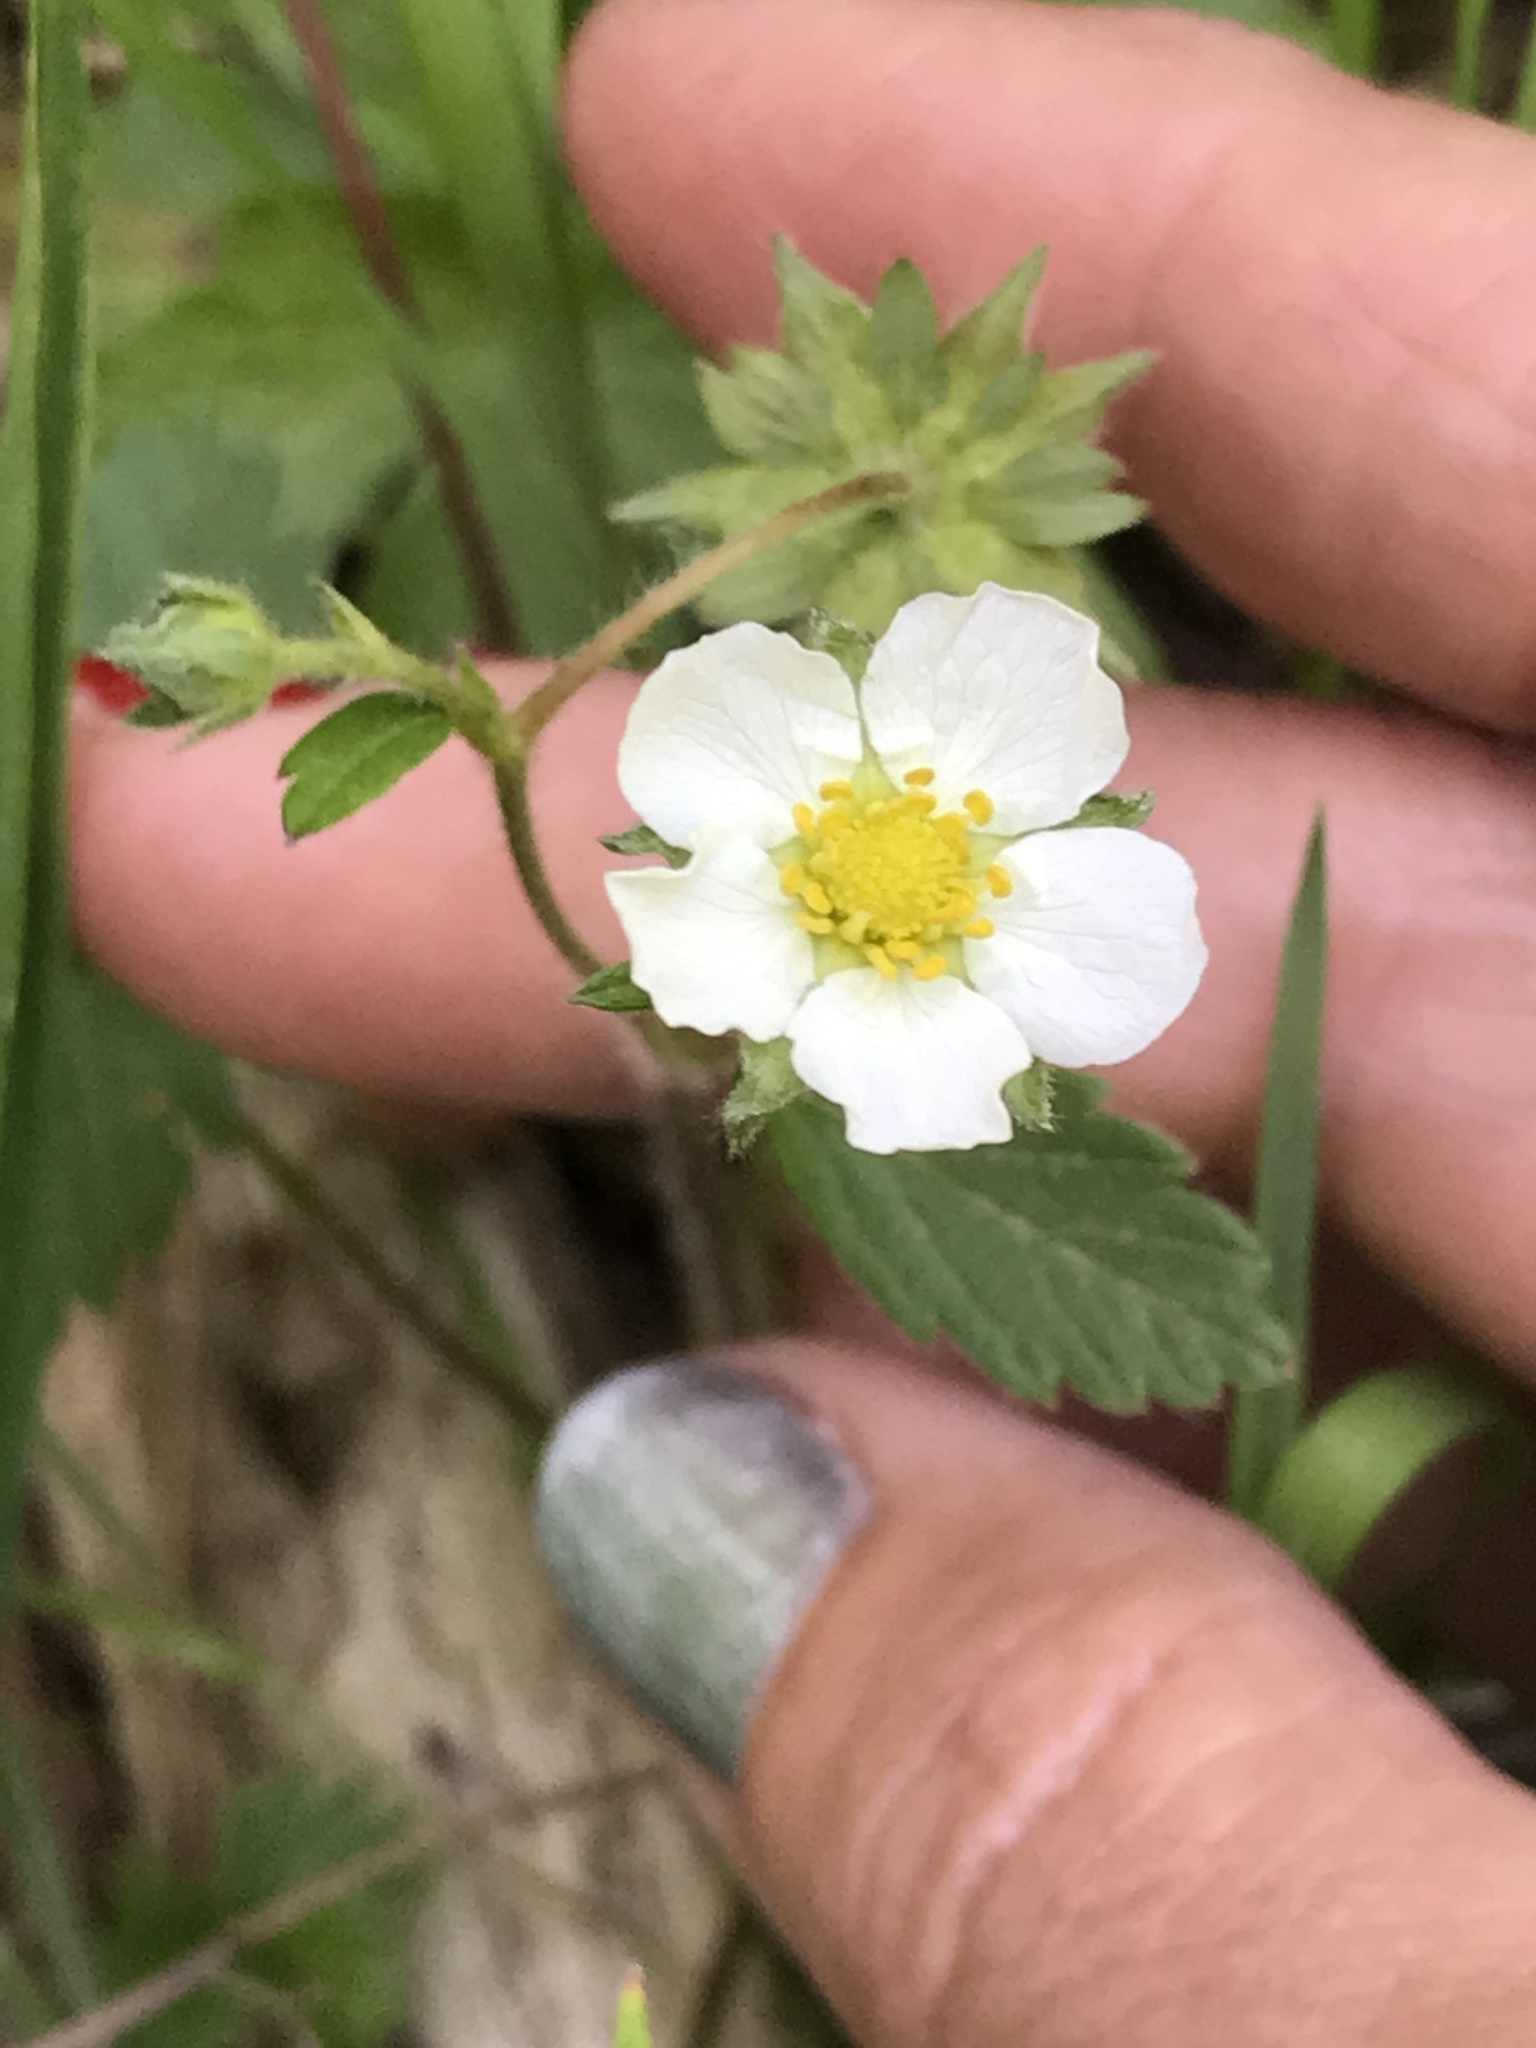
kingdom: Plantae
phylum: Tracheophyta
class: Magnoliopsida
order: Rosales
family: Rosaceae
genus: Fragaria
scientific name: Fragaria vesca
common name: Wild strawberry
